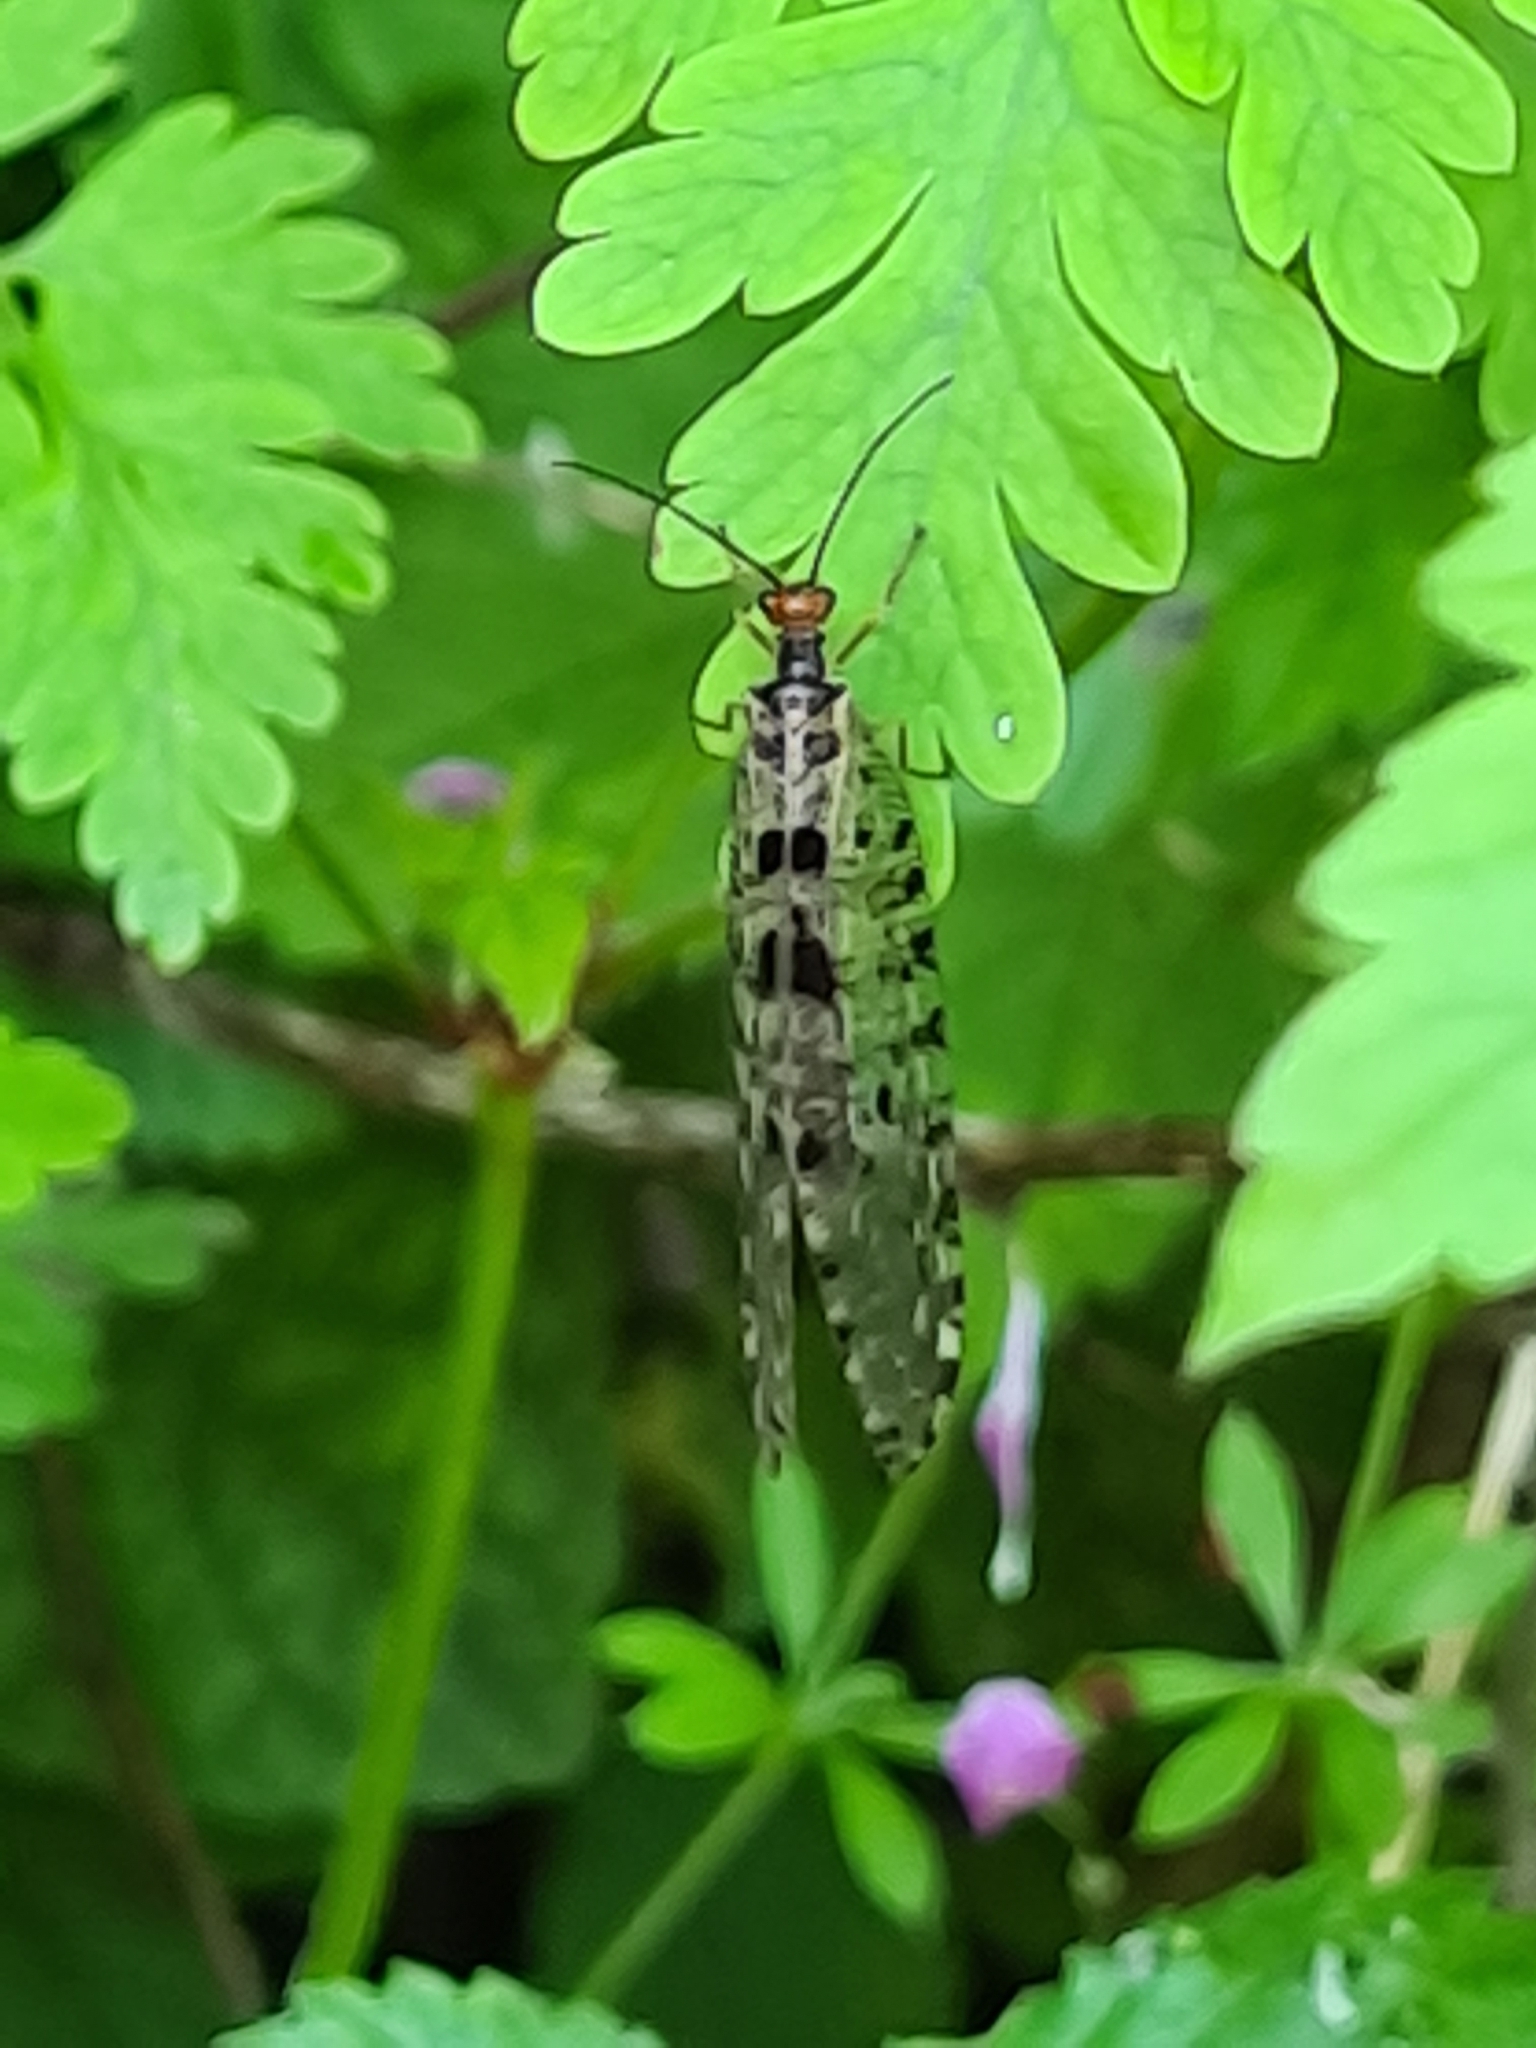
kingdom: Animalia
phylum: Arthropoda
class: Insecta
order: Neuroptera
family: Osmylidae
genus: Osmylus
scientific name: Osmylus fulvicephalus
